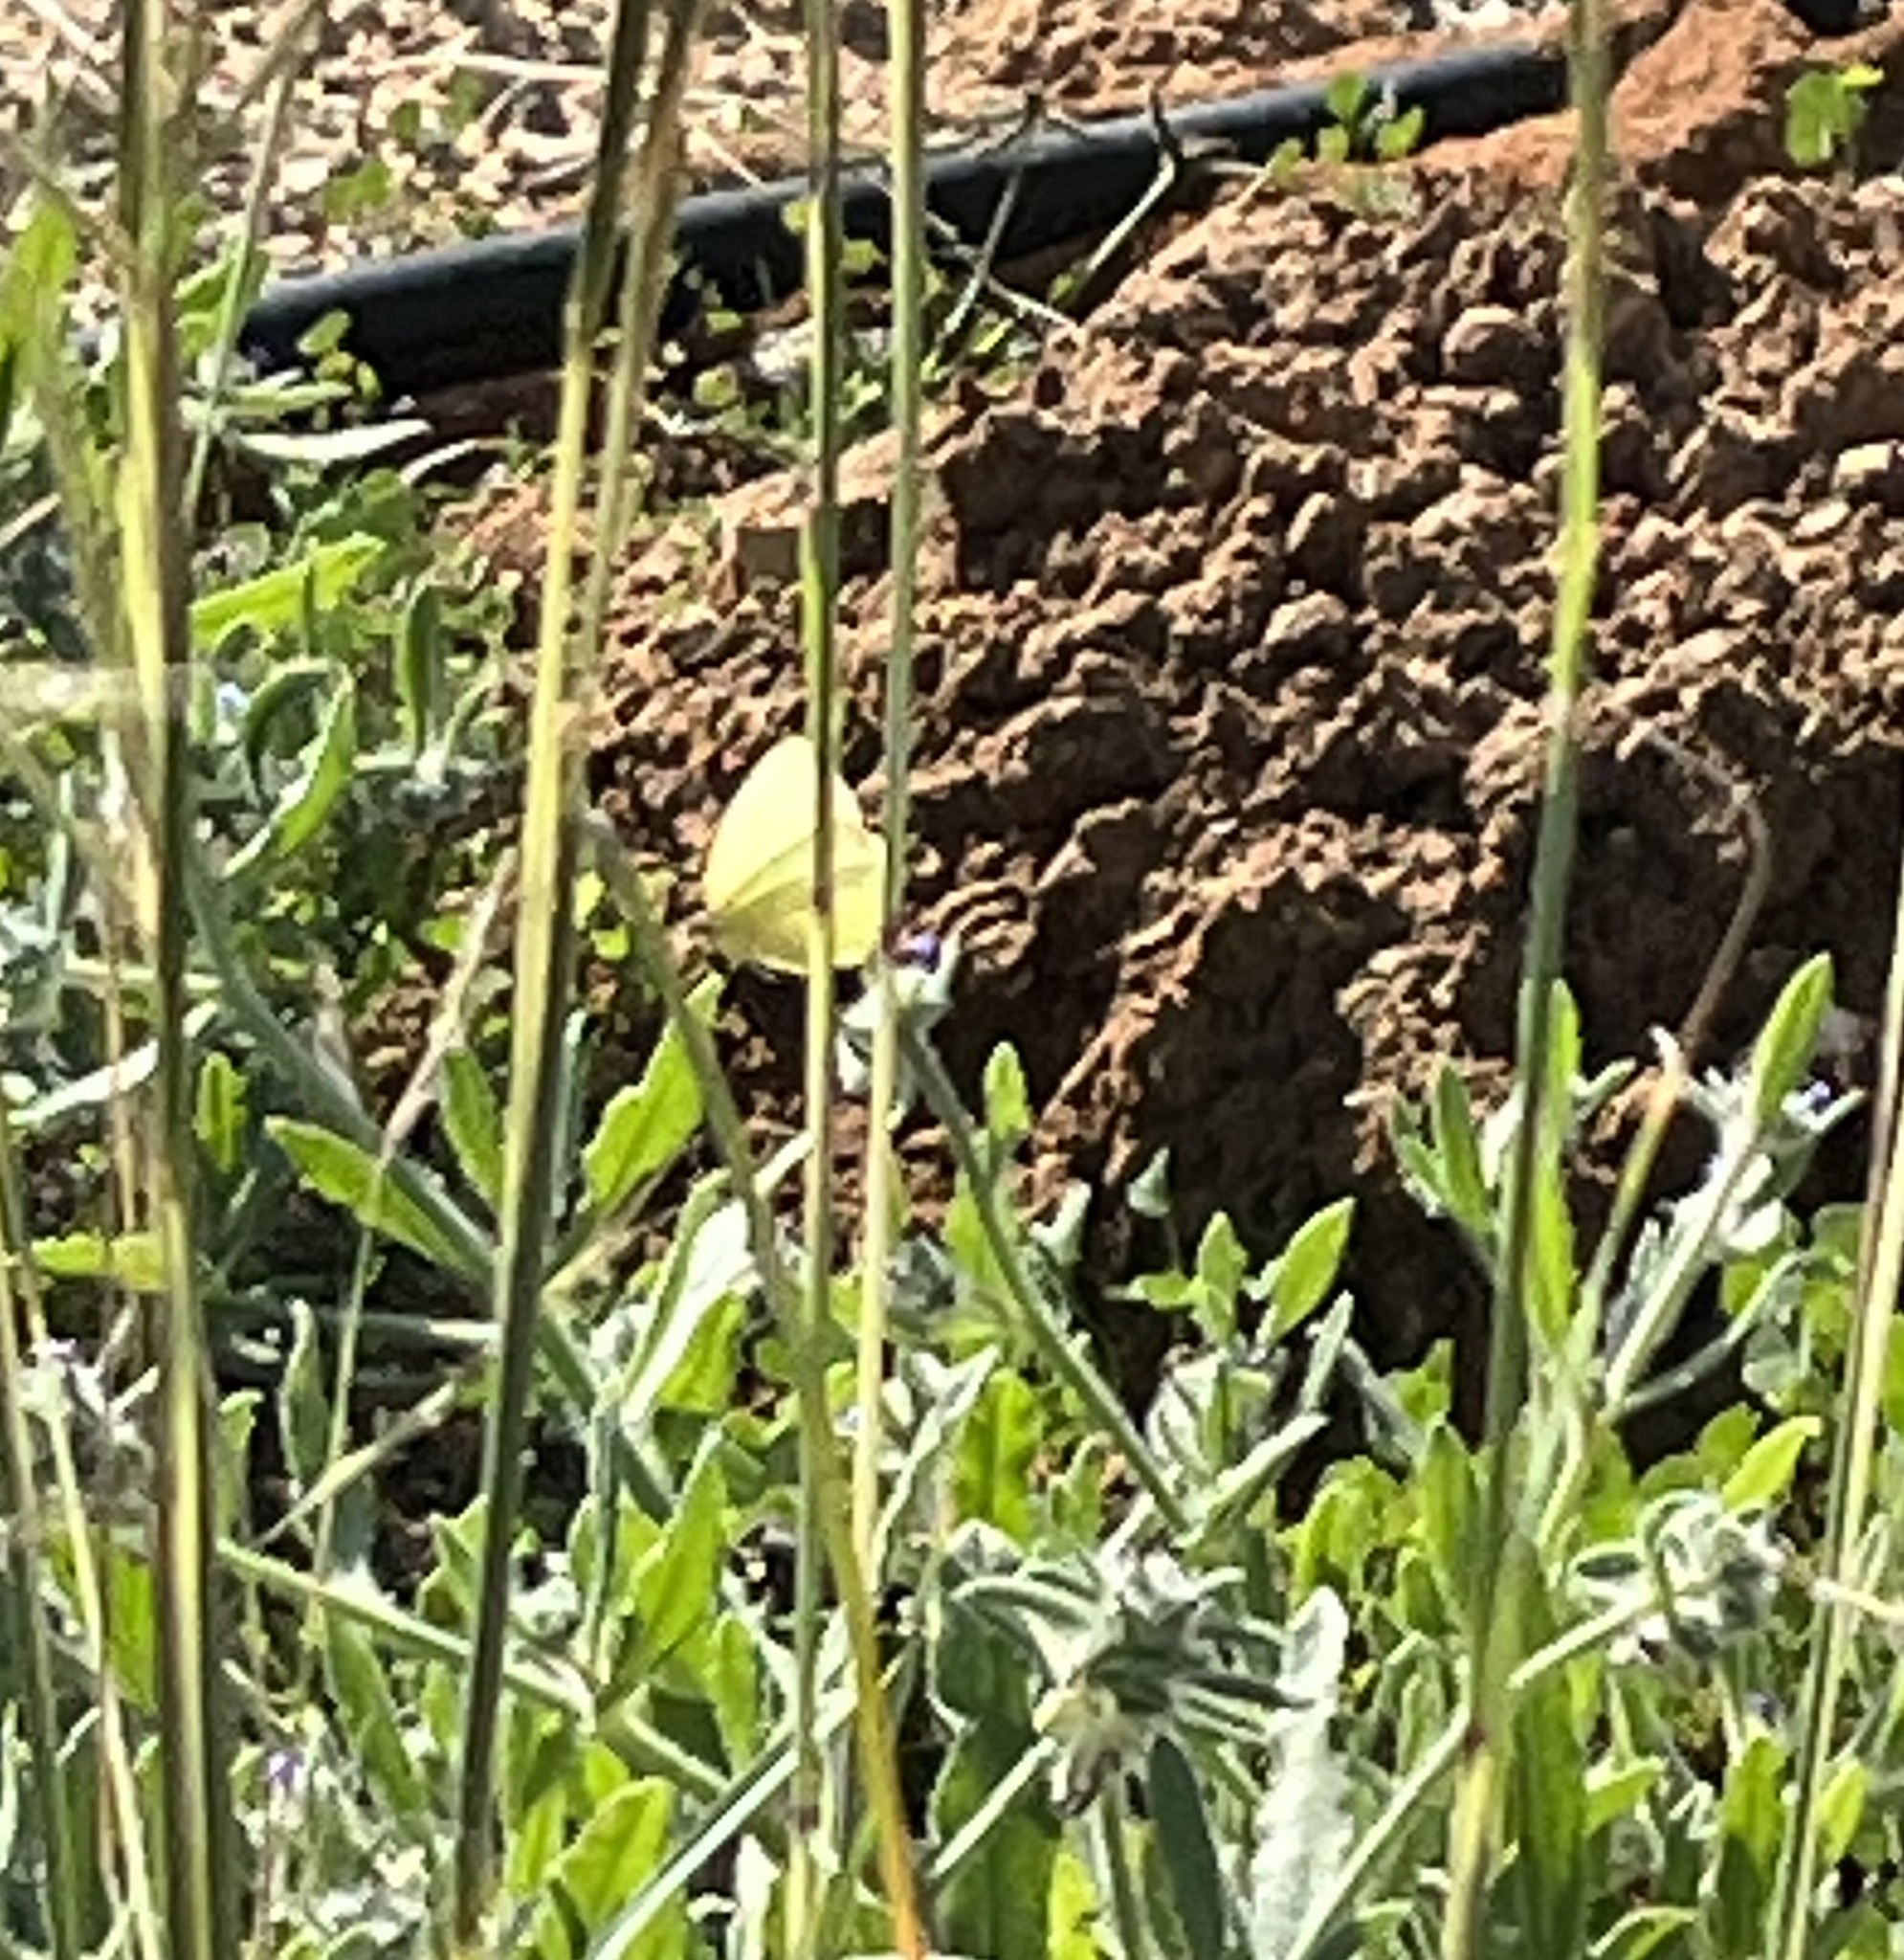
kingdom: Animalia
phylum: Arthropoda
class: Insecta
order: Lepidoptera
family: Pieridae
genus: Catopsilia
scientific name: Catopsilia florella
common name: African migrant
